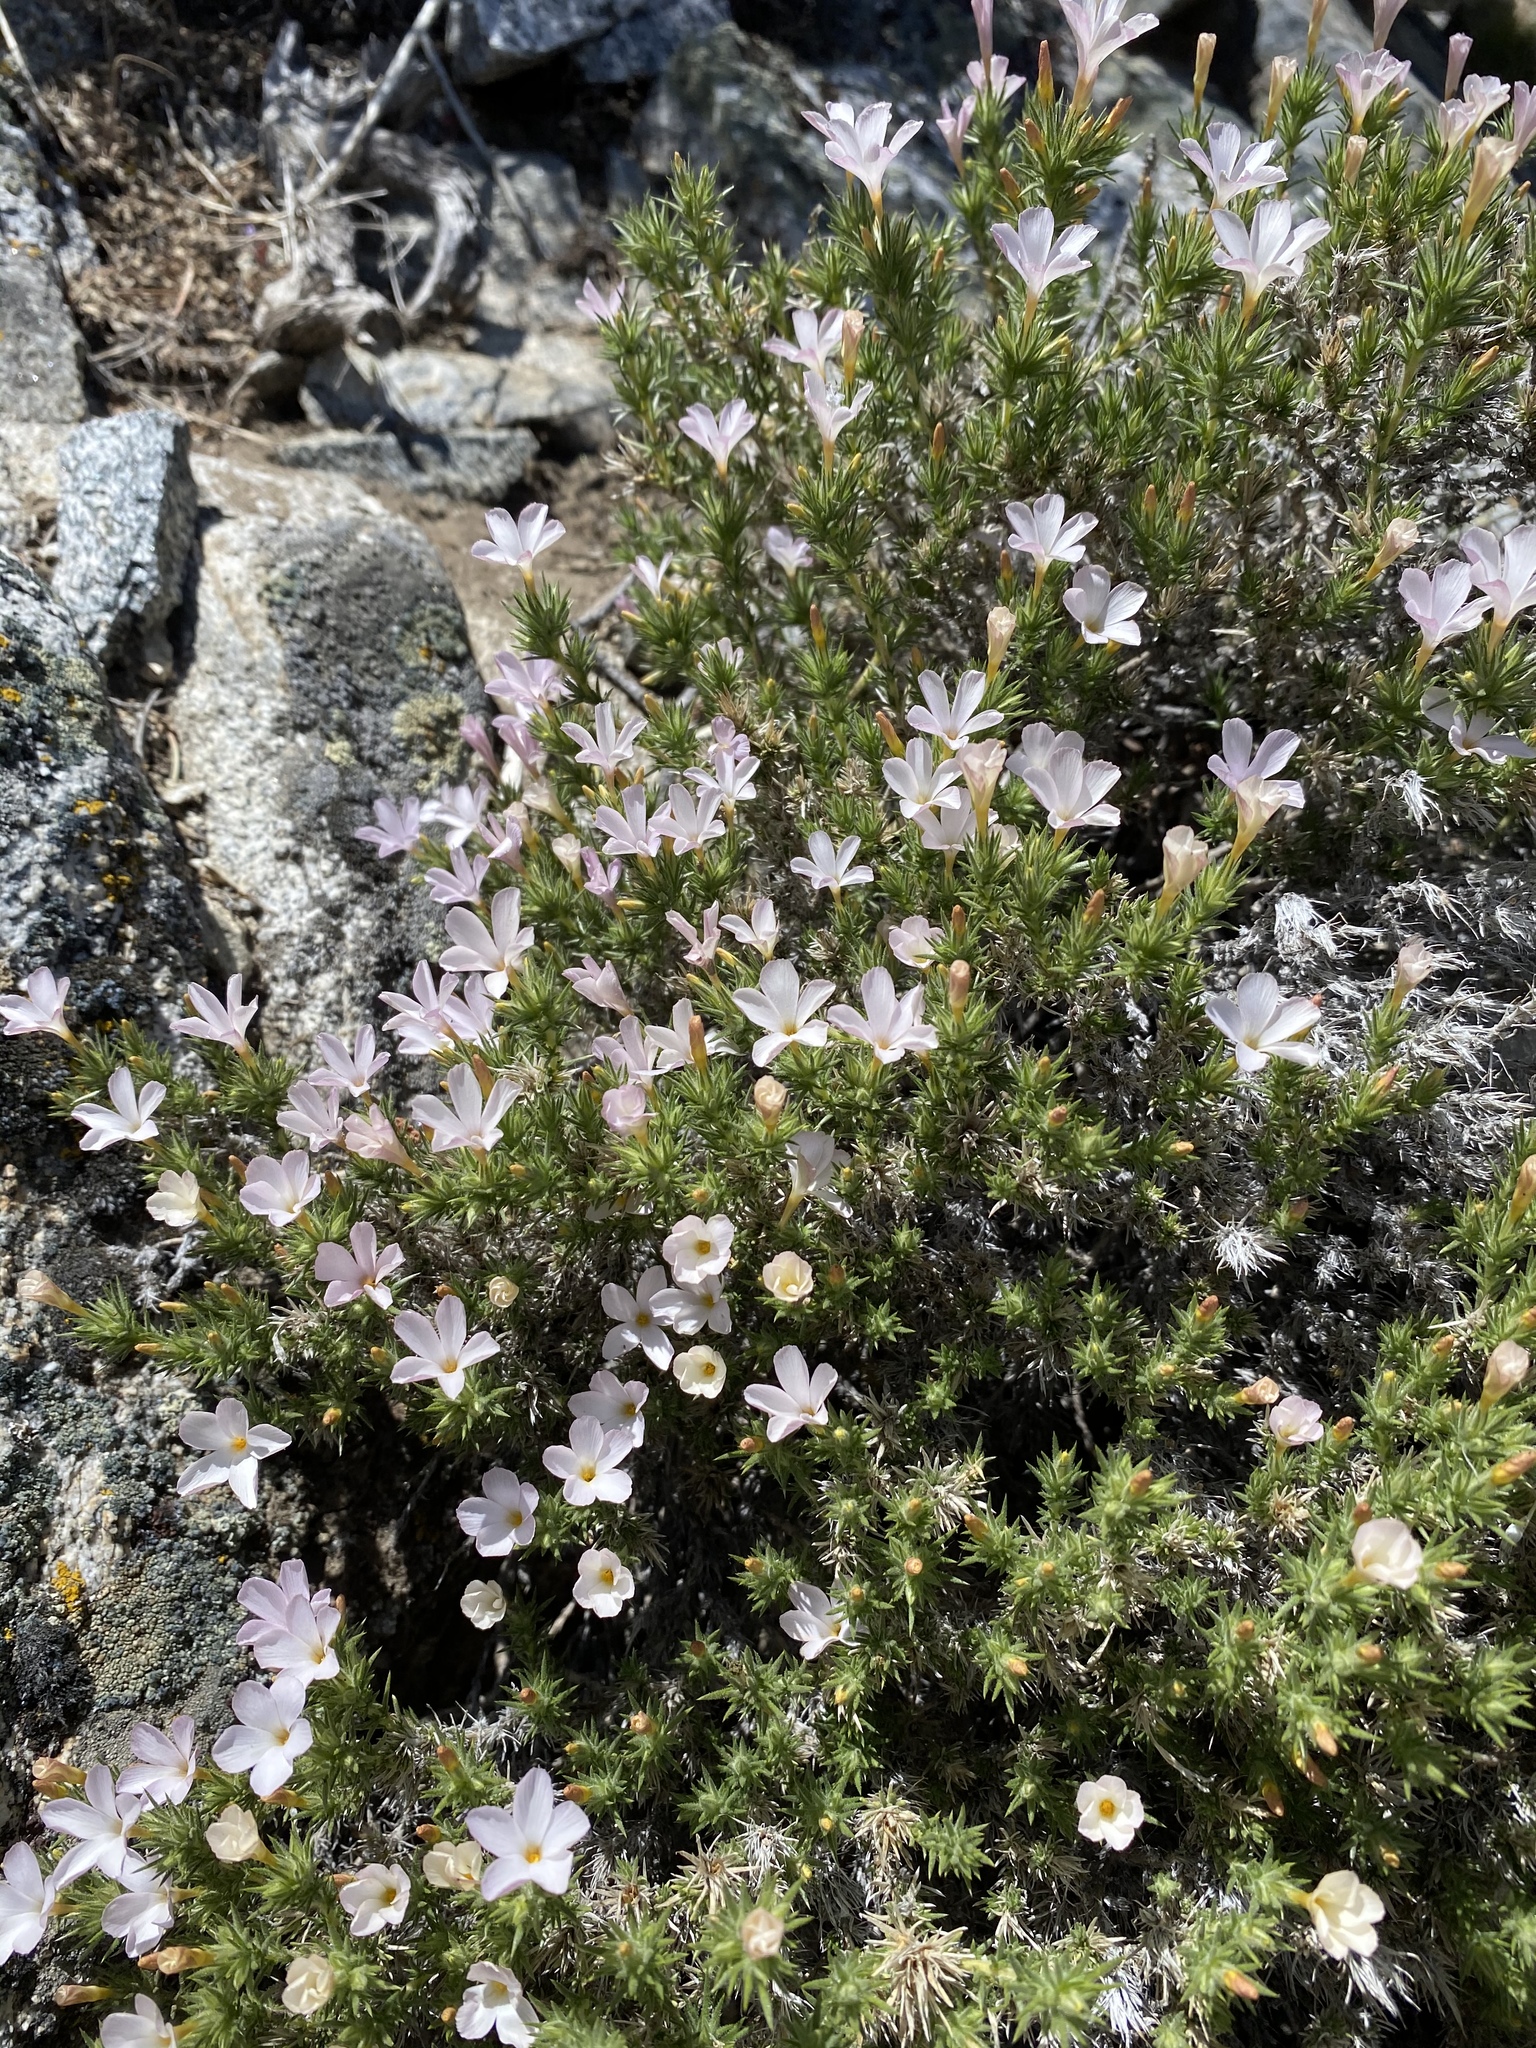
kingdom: Plantae
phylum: Tracheophyta
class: Magnoliopsida
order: Ericales
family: Polemoniaceae
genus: Linanthus
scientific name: Linanthus pungens
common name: Granite prickly phlox
